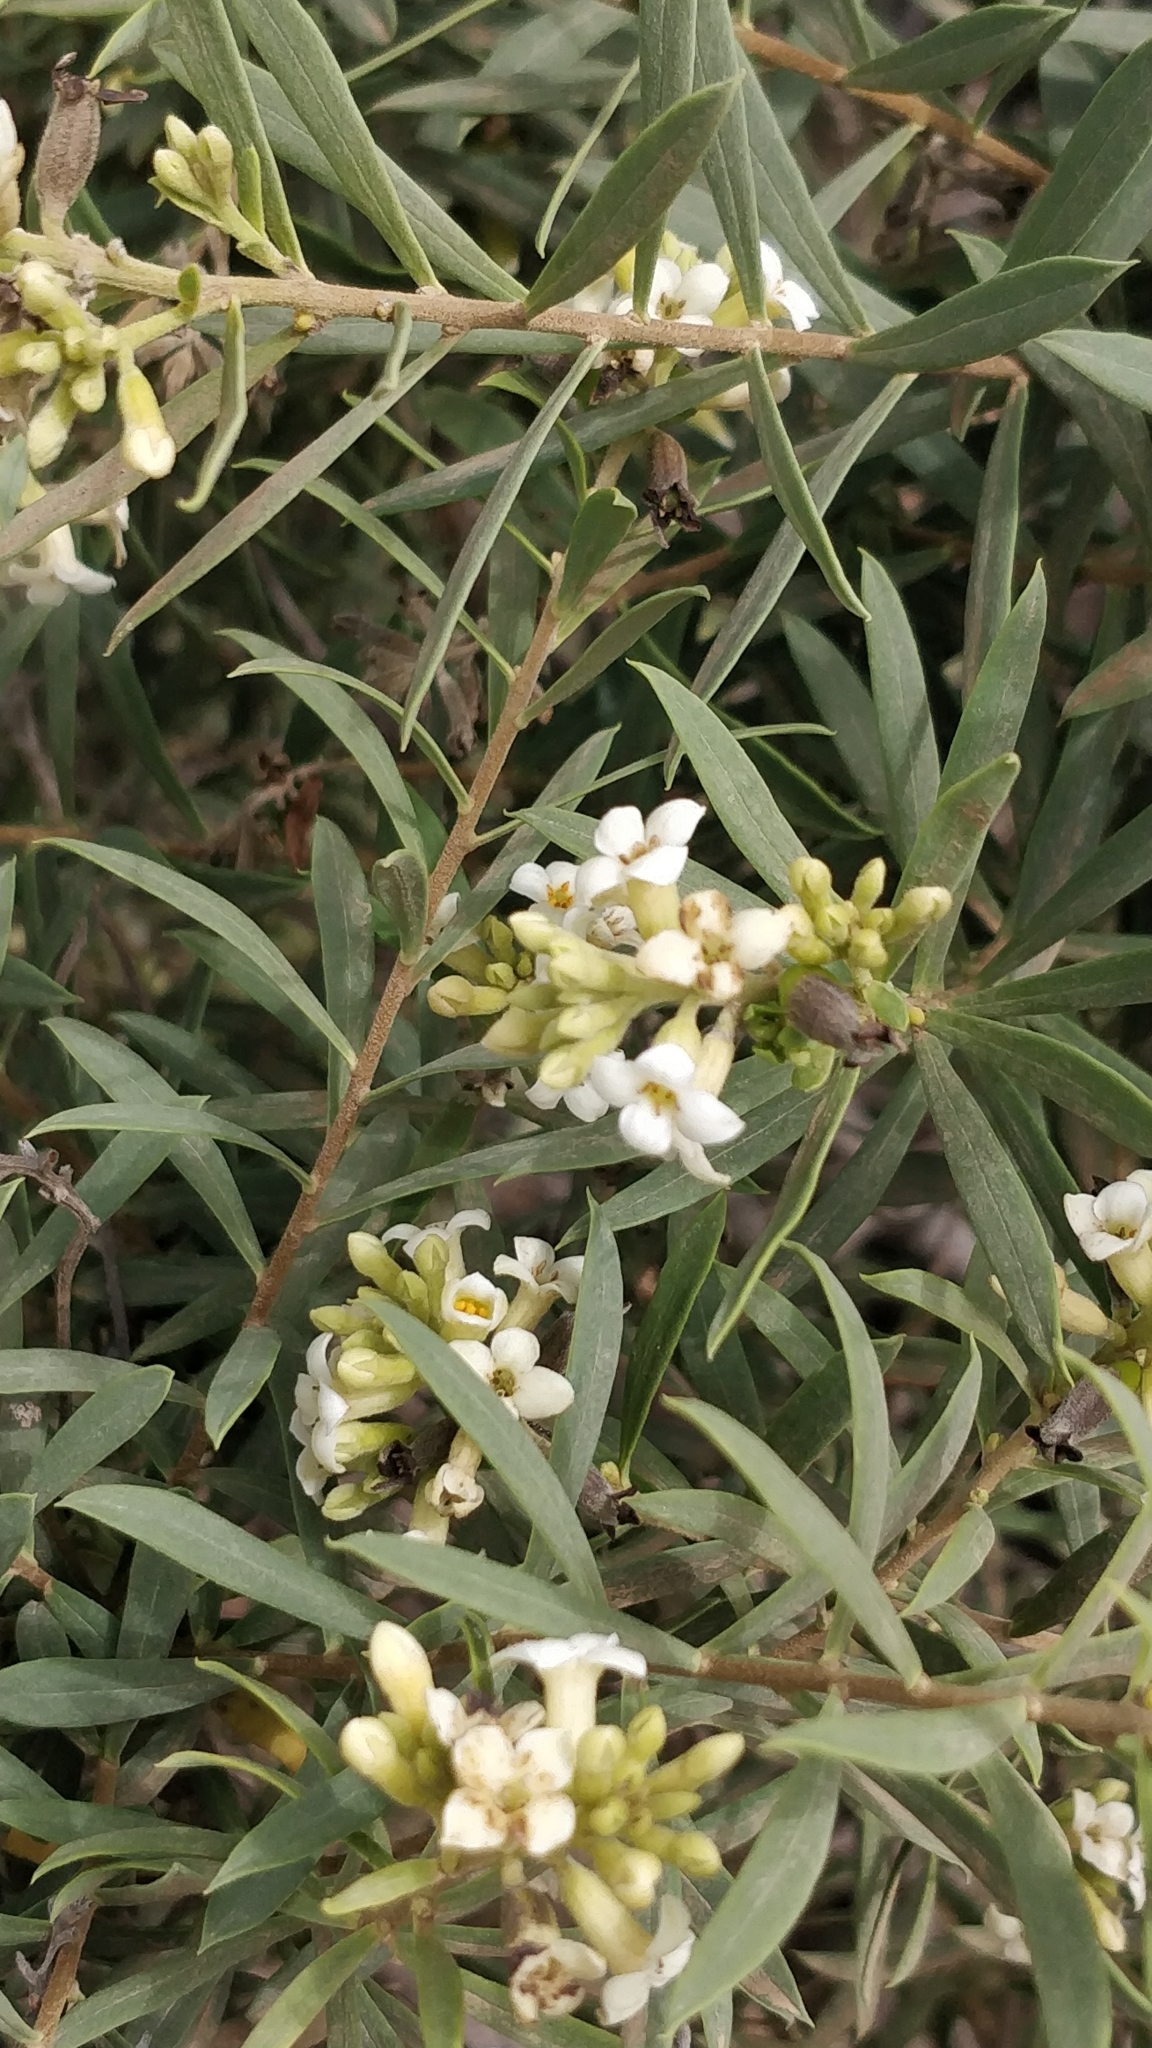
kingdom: Plantae
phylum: Tracheophyta
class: Magnoliopsida
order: Malvales
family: Thymelaeaceae
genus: Daphne
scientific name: Daphne gnidium
